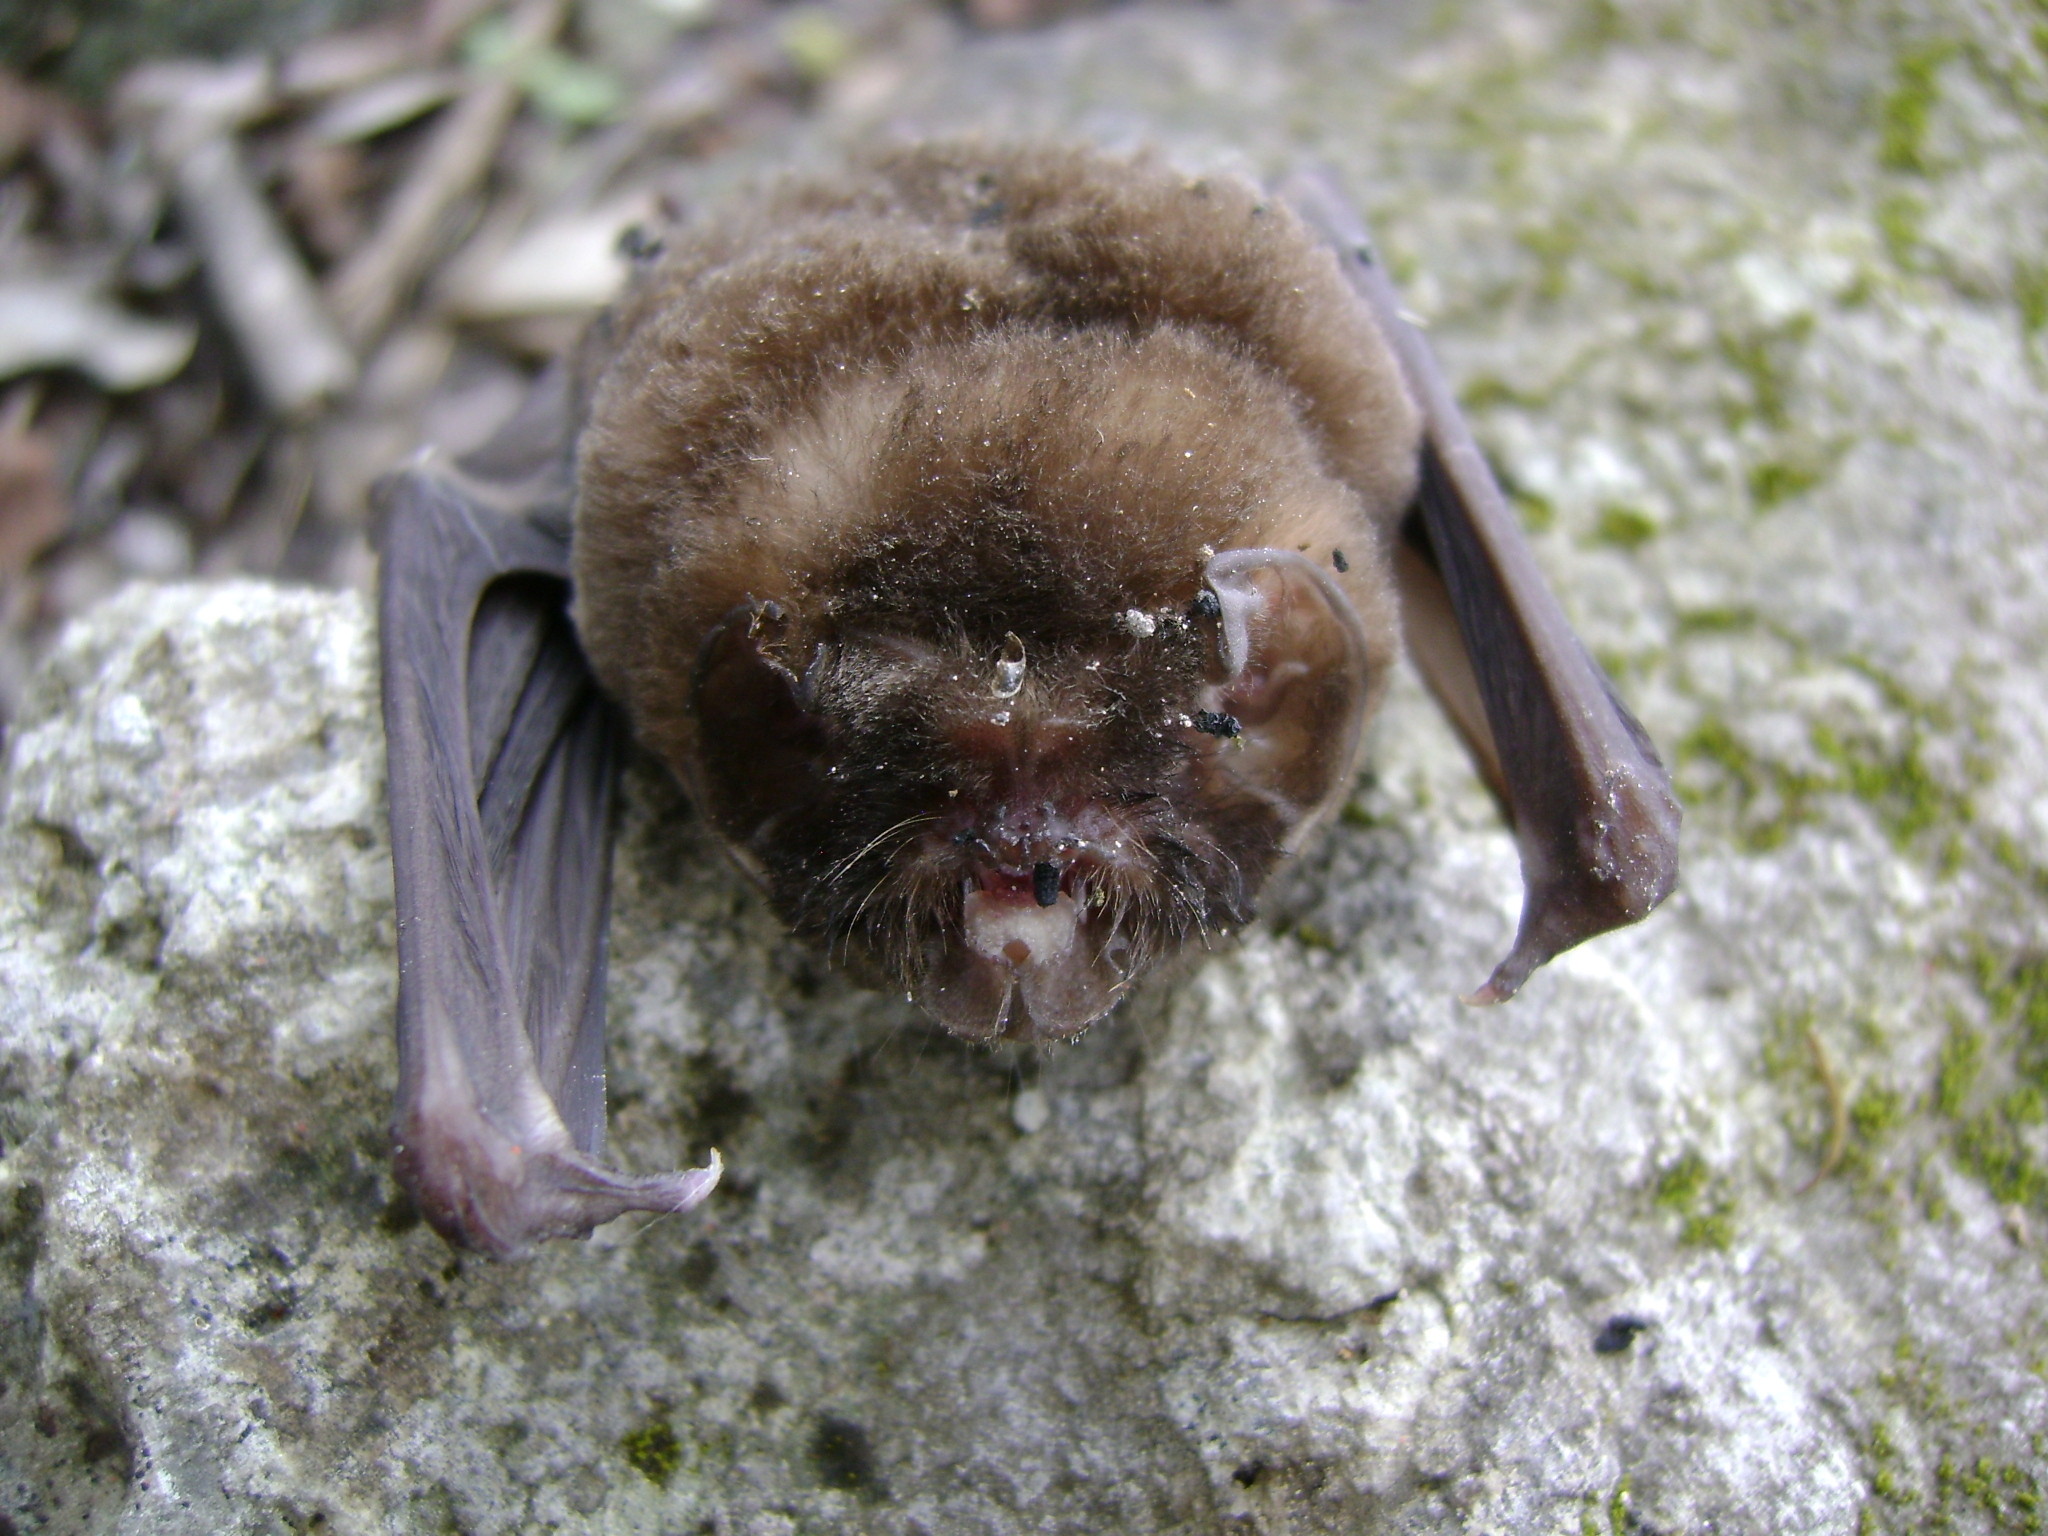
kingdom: Animalia
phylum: Chordata
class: Mammalia
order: Chiroptera
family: Mormoopidae
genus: Mormoops
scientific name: Mormoops megalophylla
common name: Peters's ghost-faced bat
